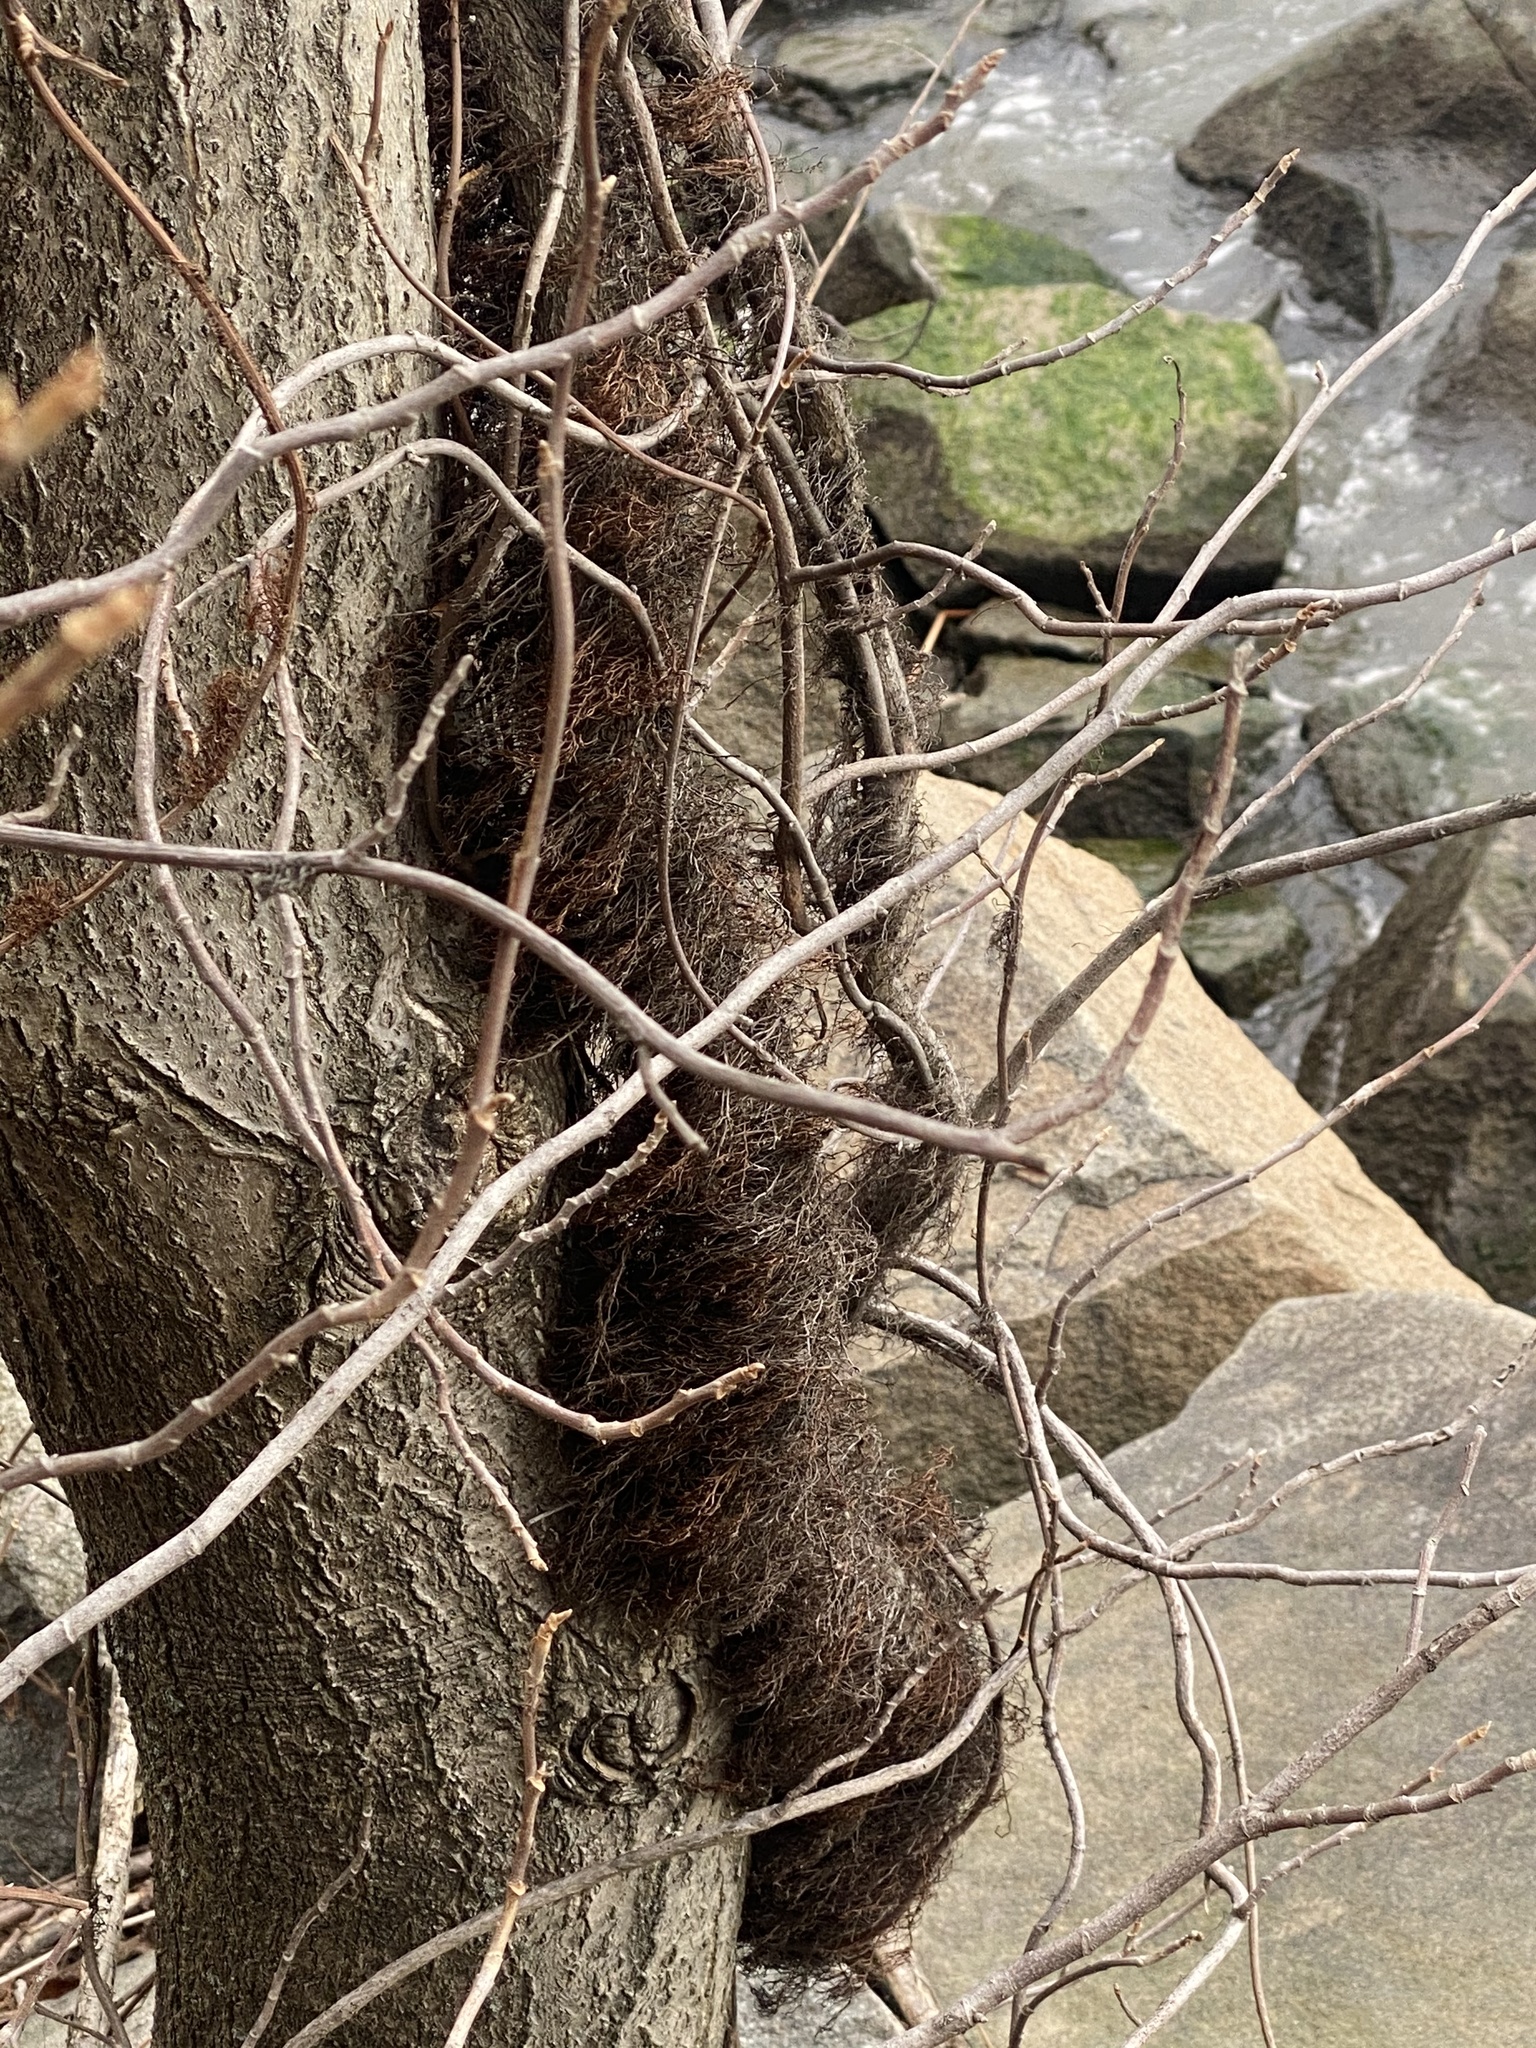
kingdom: Plantae
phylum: Tracheophyta
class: Magnoliopsida
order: Sapindales
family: Anacardiaceae
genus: Toxicodendron
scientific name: Toxicodendron radicans
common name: Poison ivy
